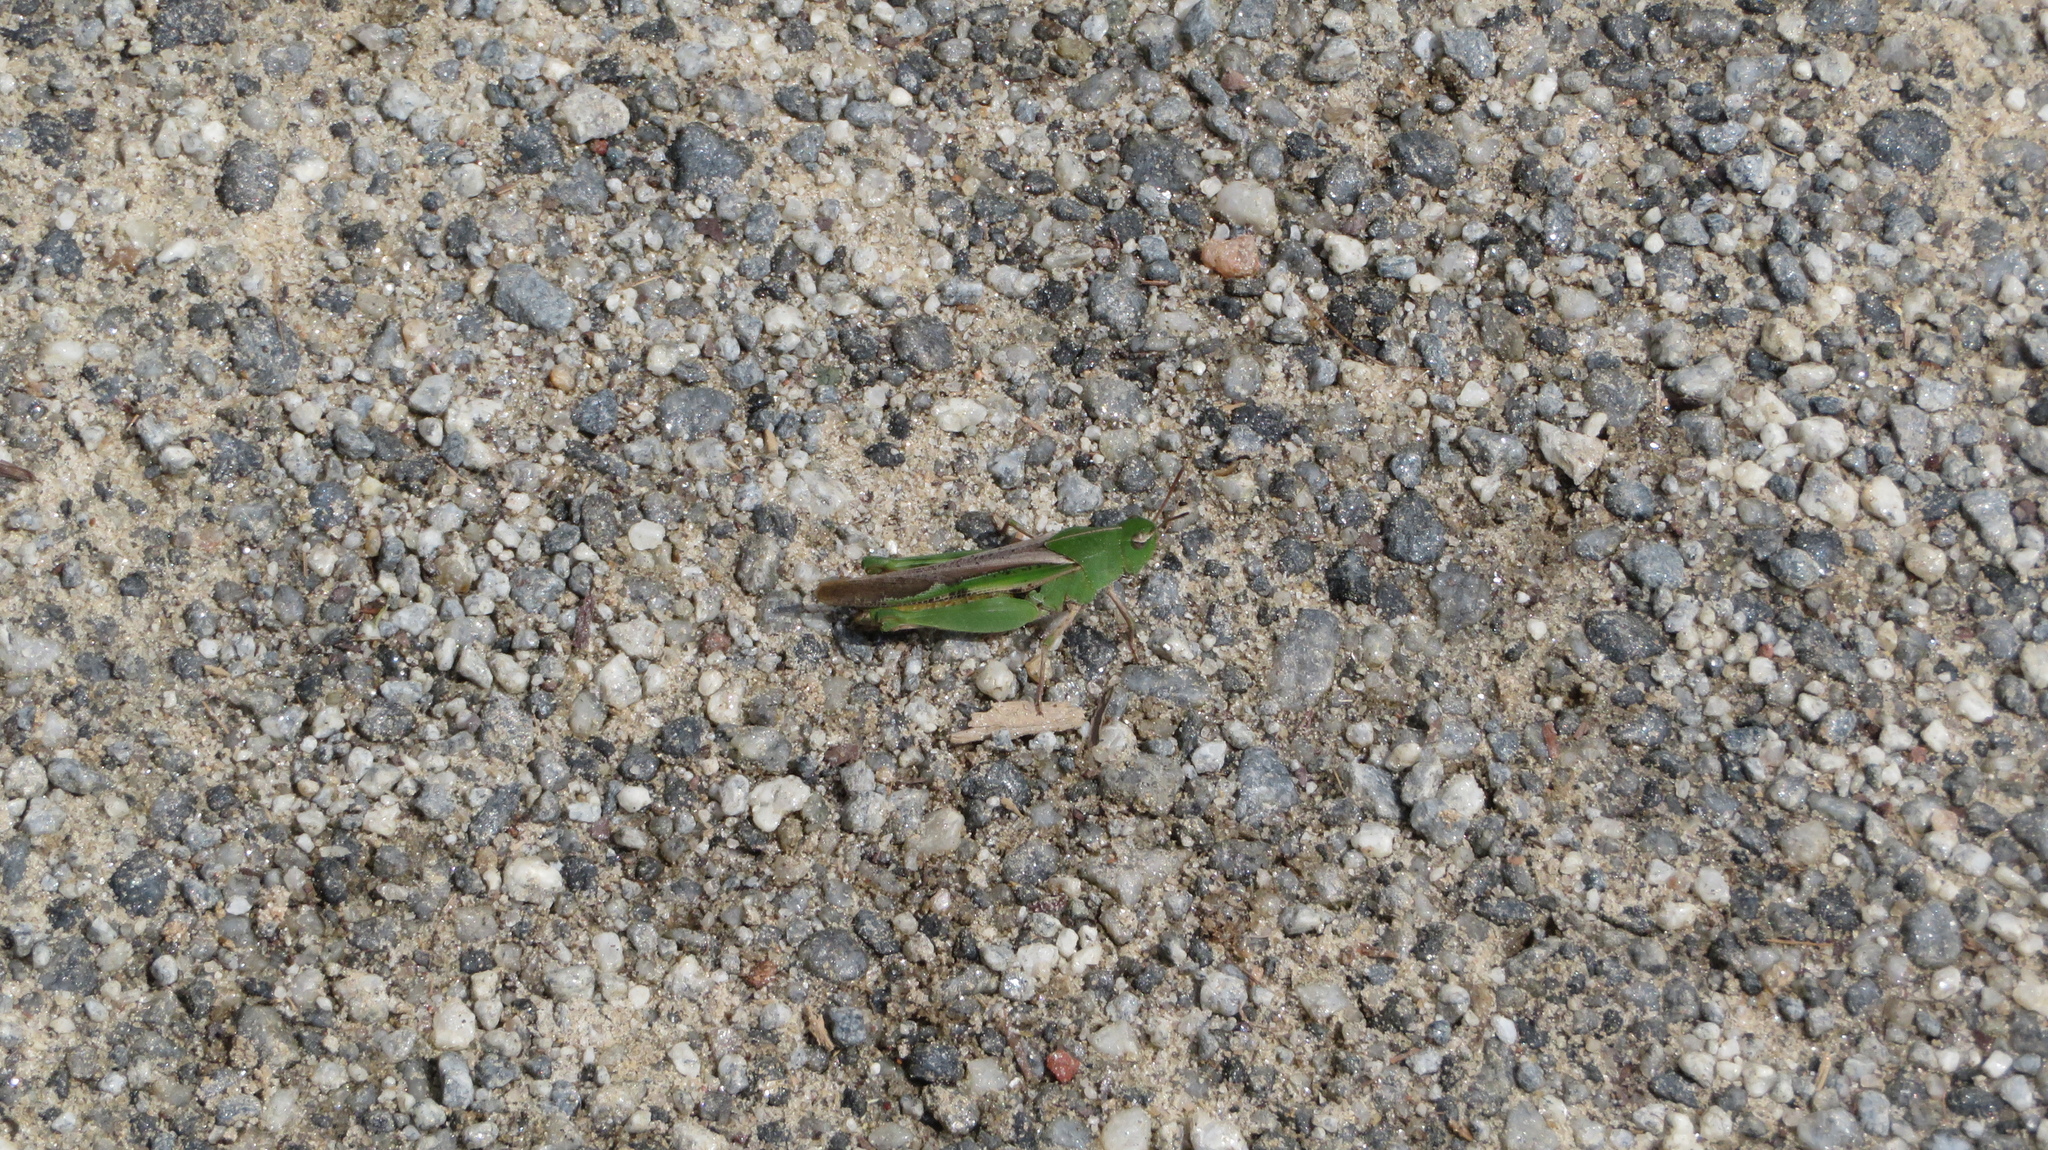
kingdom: Animalia
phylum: Arthropoda
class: Insecta
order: Orthoptera
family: Acrididae
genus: Chortophaga
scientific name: Chortophaga viridifasciata
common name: Green-striped grasshopper
